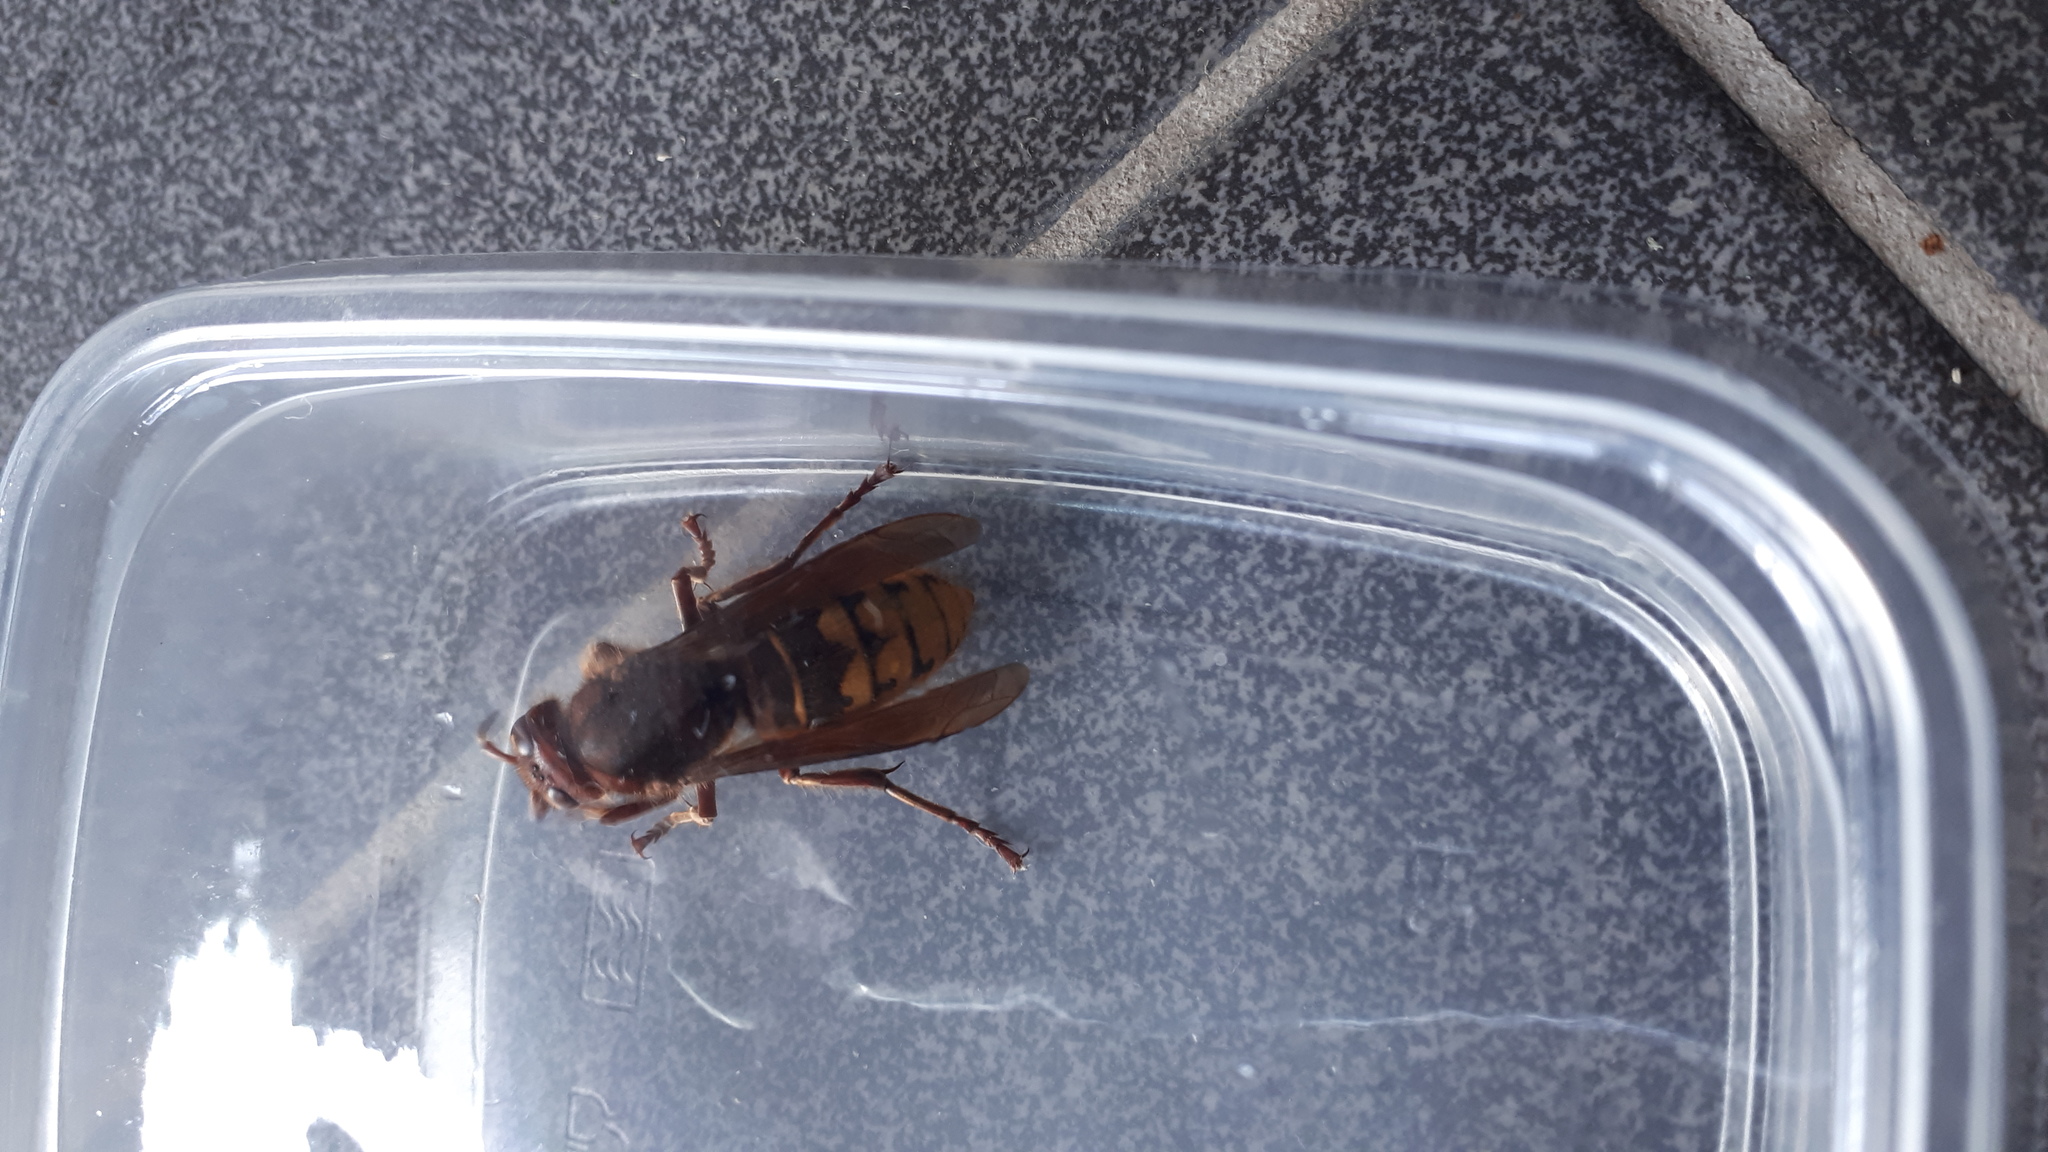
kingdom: Animalia
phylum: Arthropoda
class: Insecta
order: Hymenoptera
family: Vespidae
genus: Vespa
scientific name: Vespa crabro
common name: Hornet
